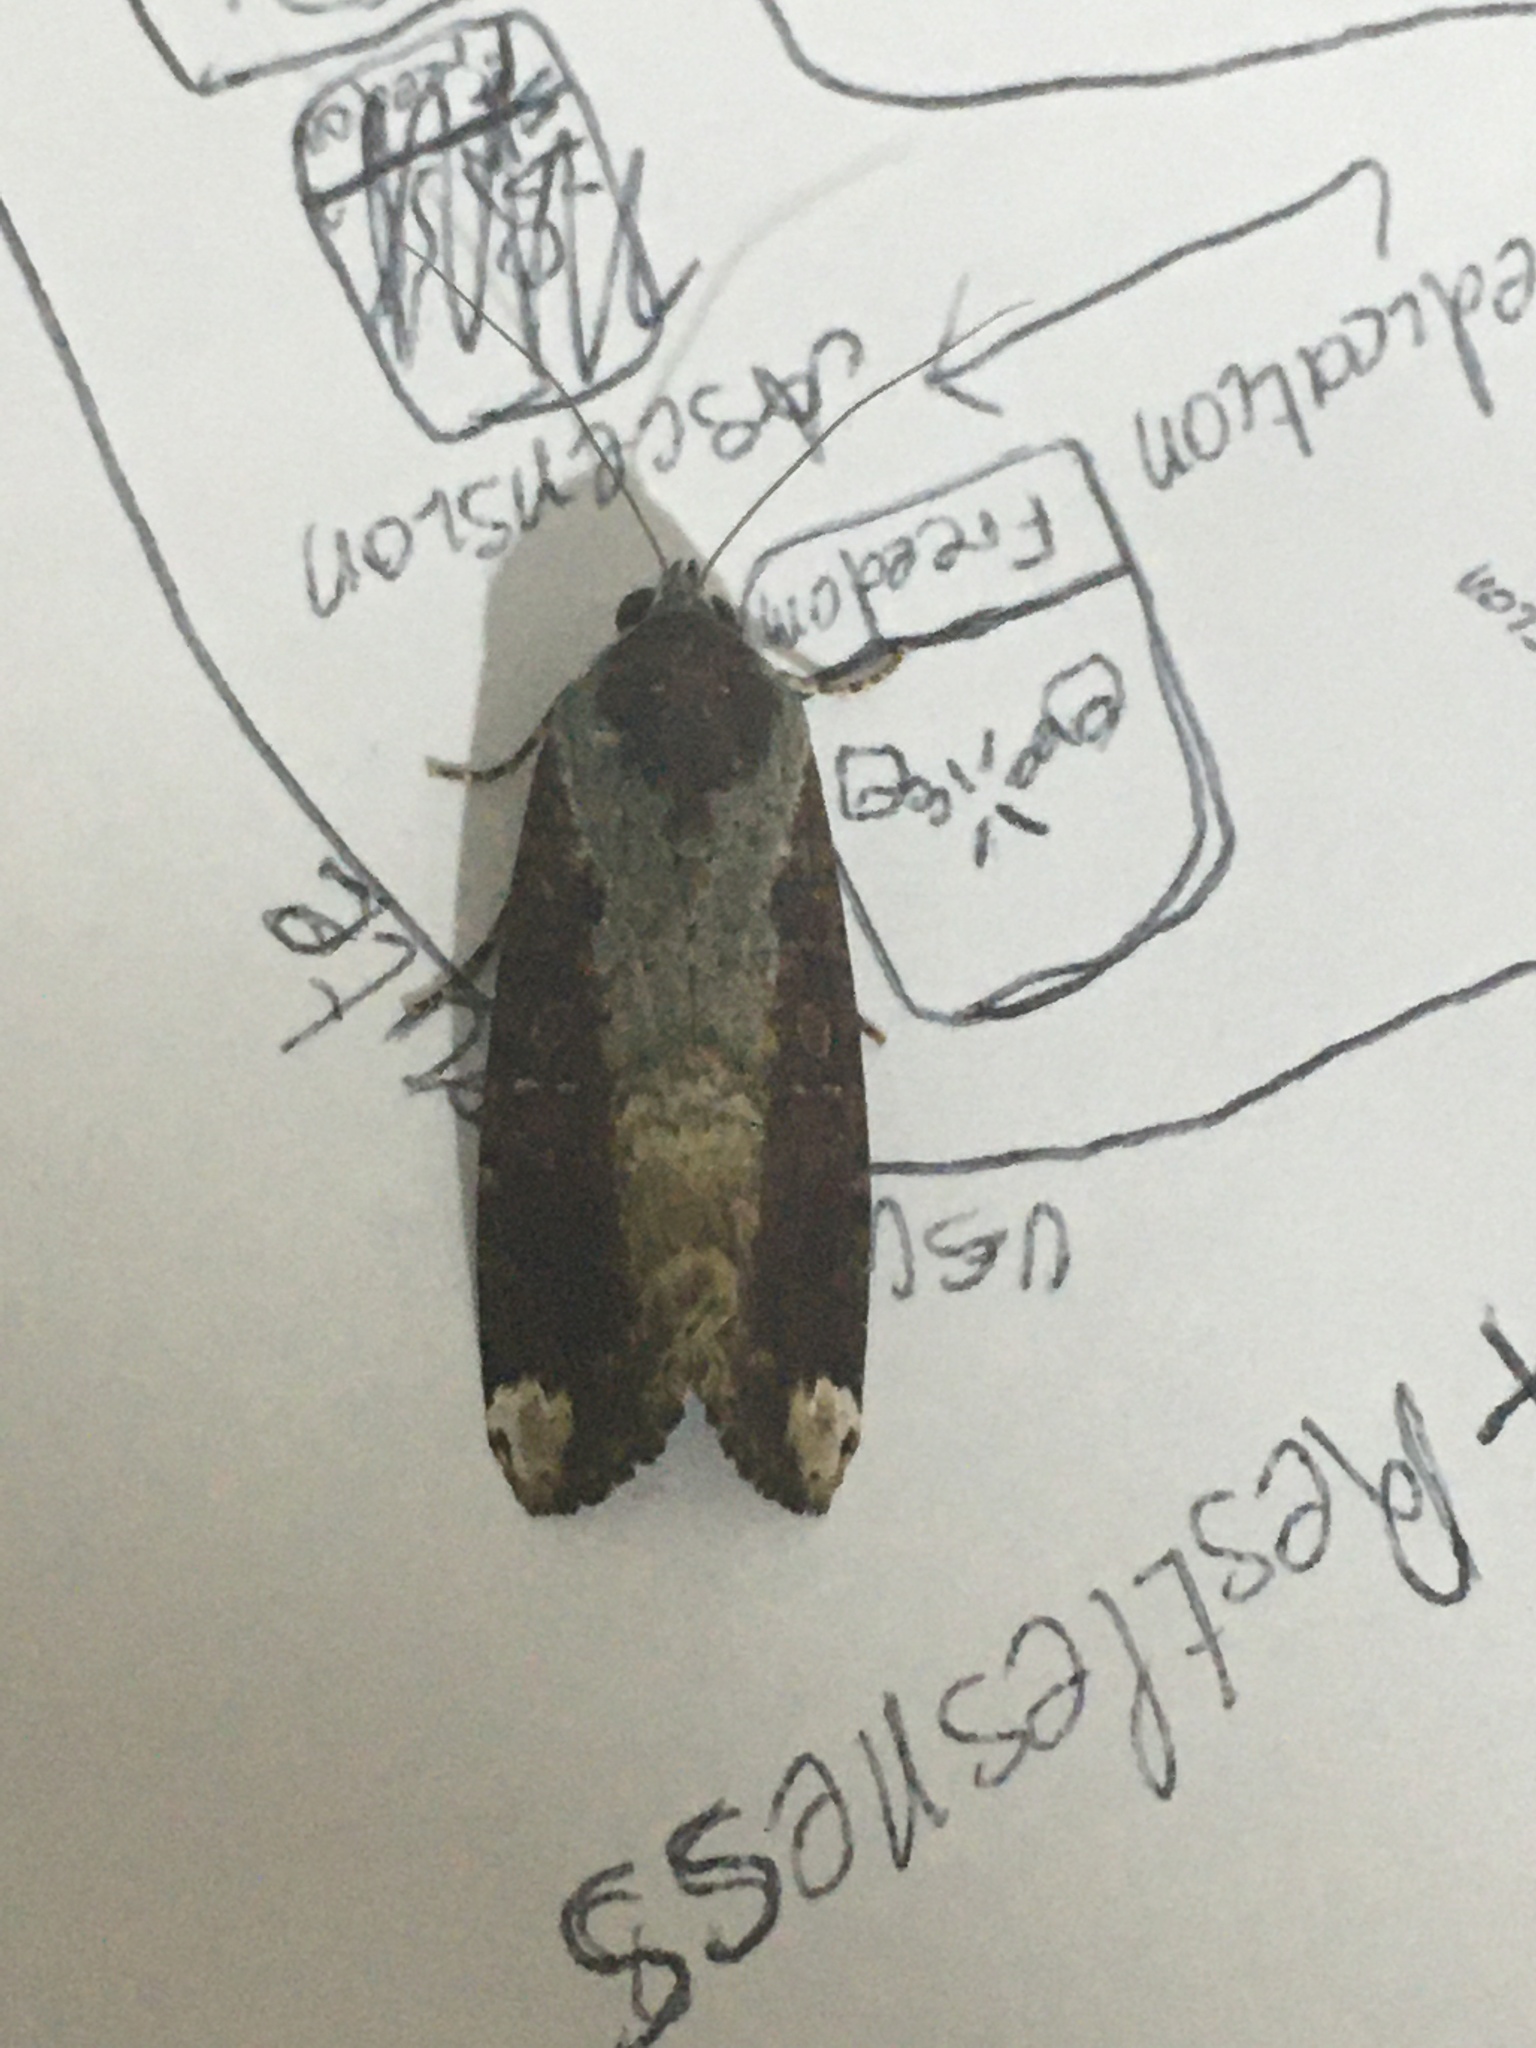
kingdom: Animalia
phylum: Arthropoda
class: Insecta
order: Lepidoptera
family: Noctuidae
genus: Magusa
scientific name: Magusa divaricata
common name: Orb narrow-winged moth
